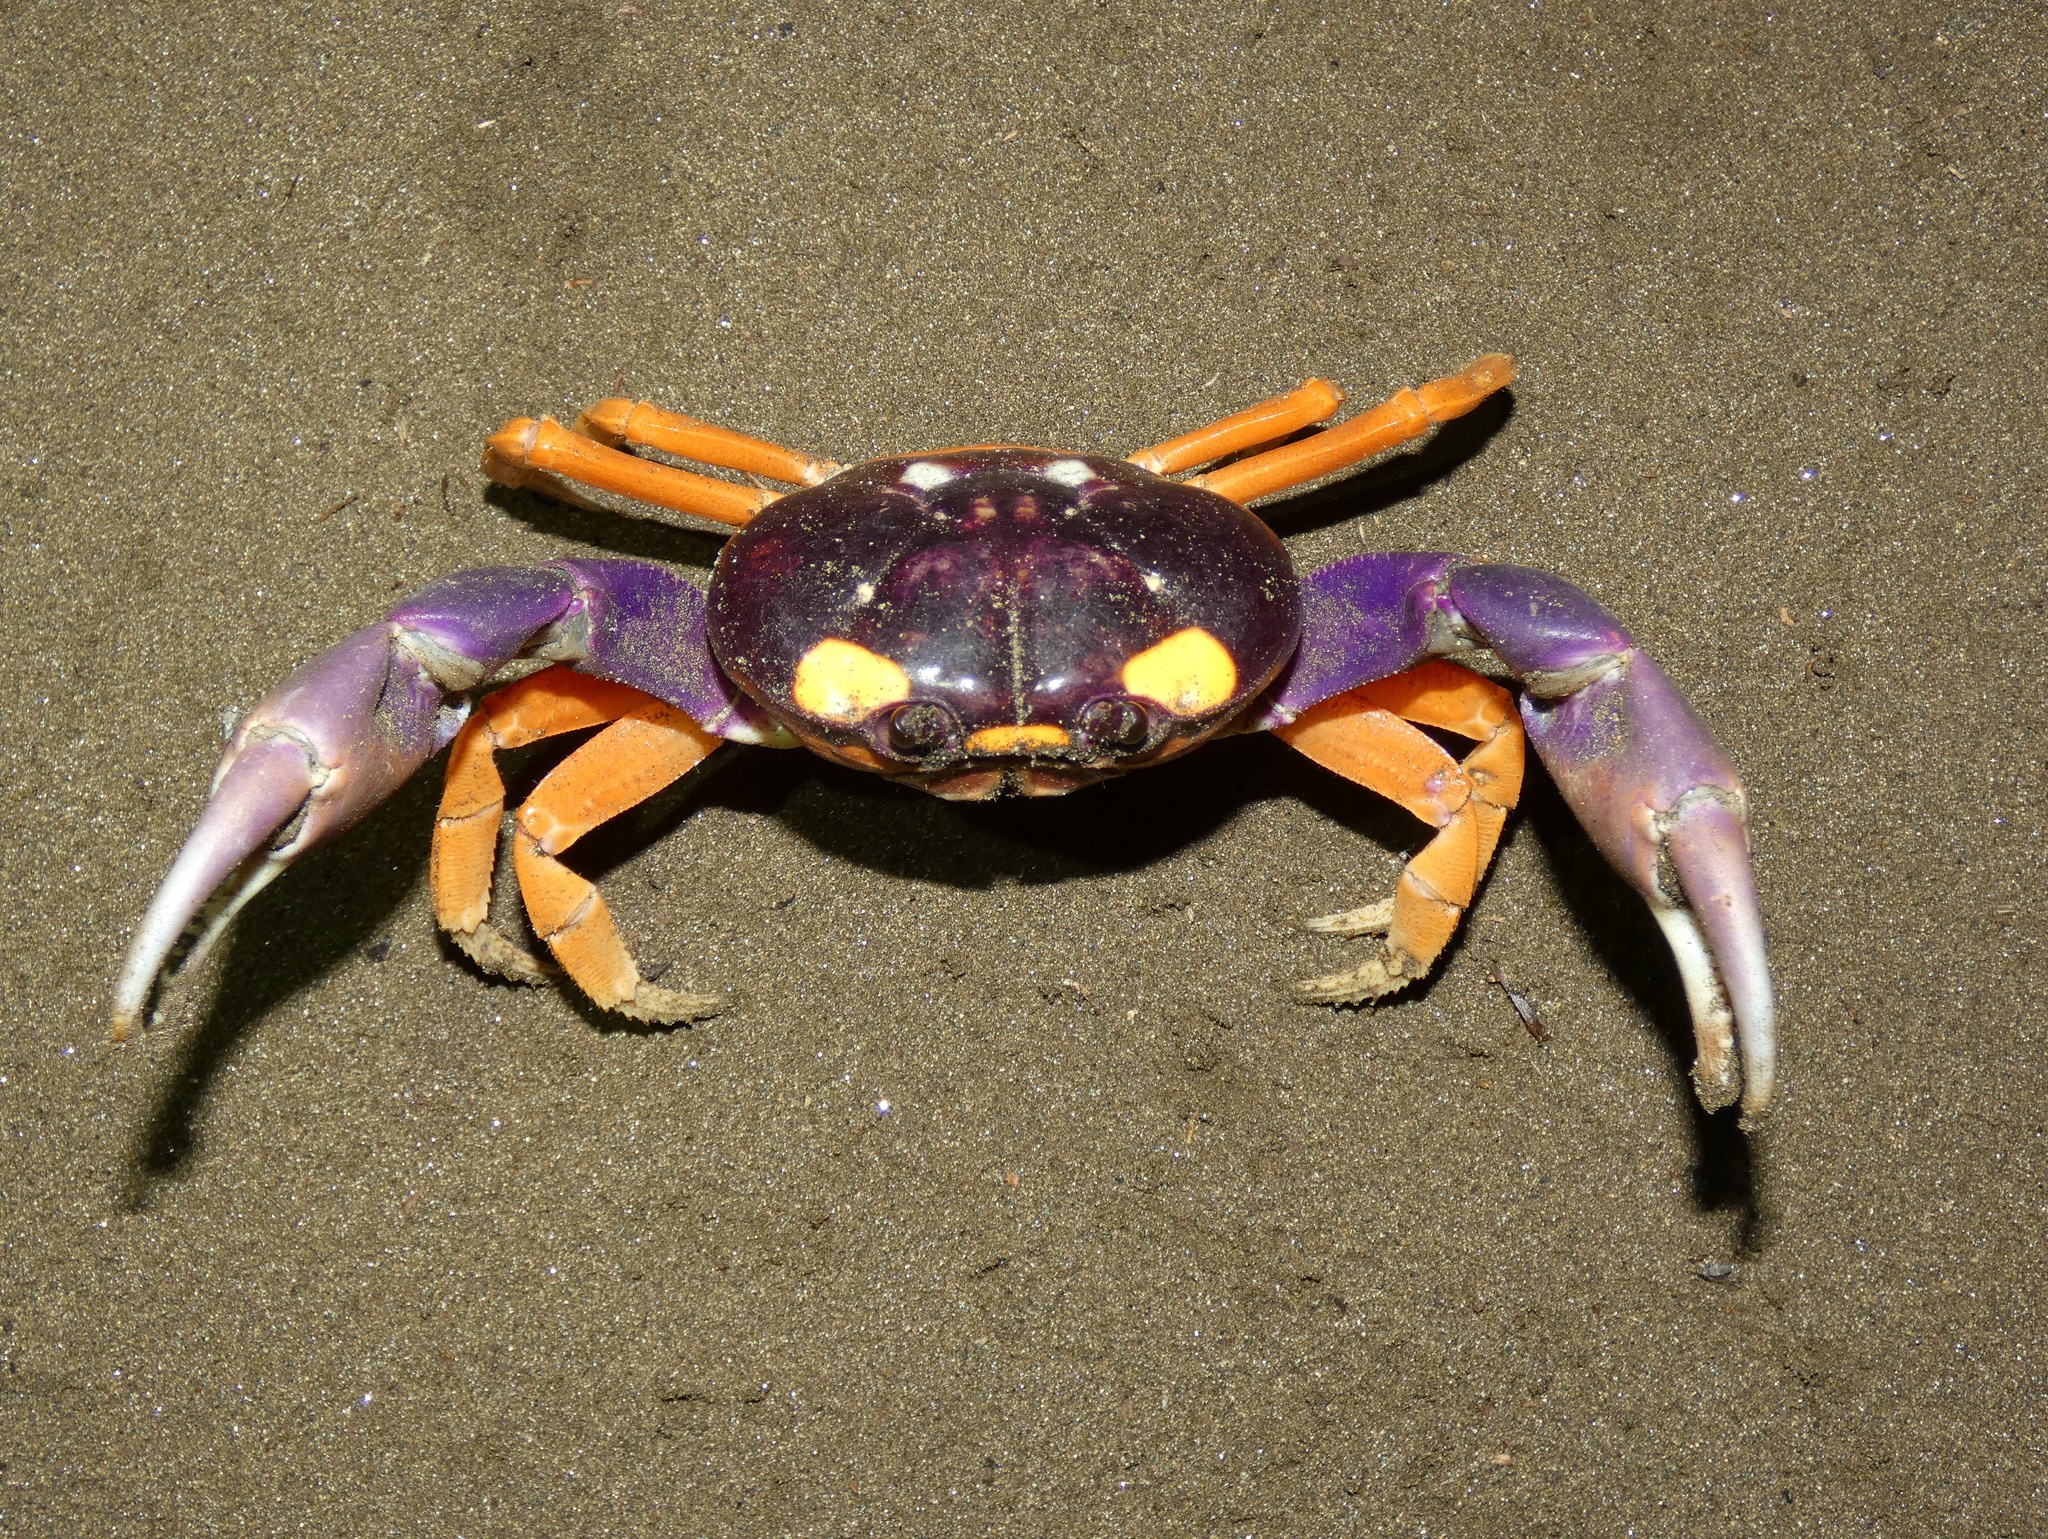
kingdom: Animalia
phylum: Arthropoda
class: Malacostraca
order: Decapoda
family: Gecarcinidae
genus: Gecarcinus
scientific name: Gecarcinus quadratus
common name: Halloween crab
